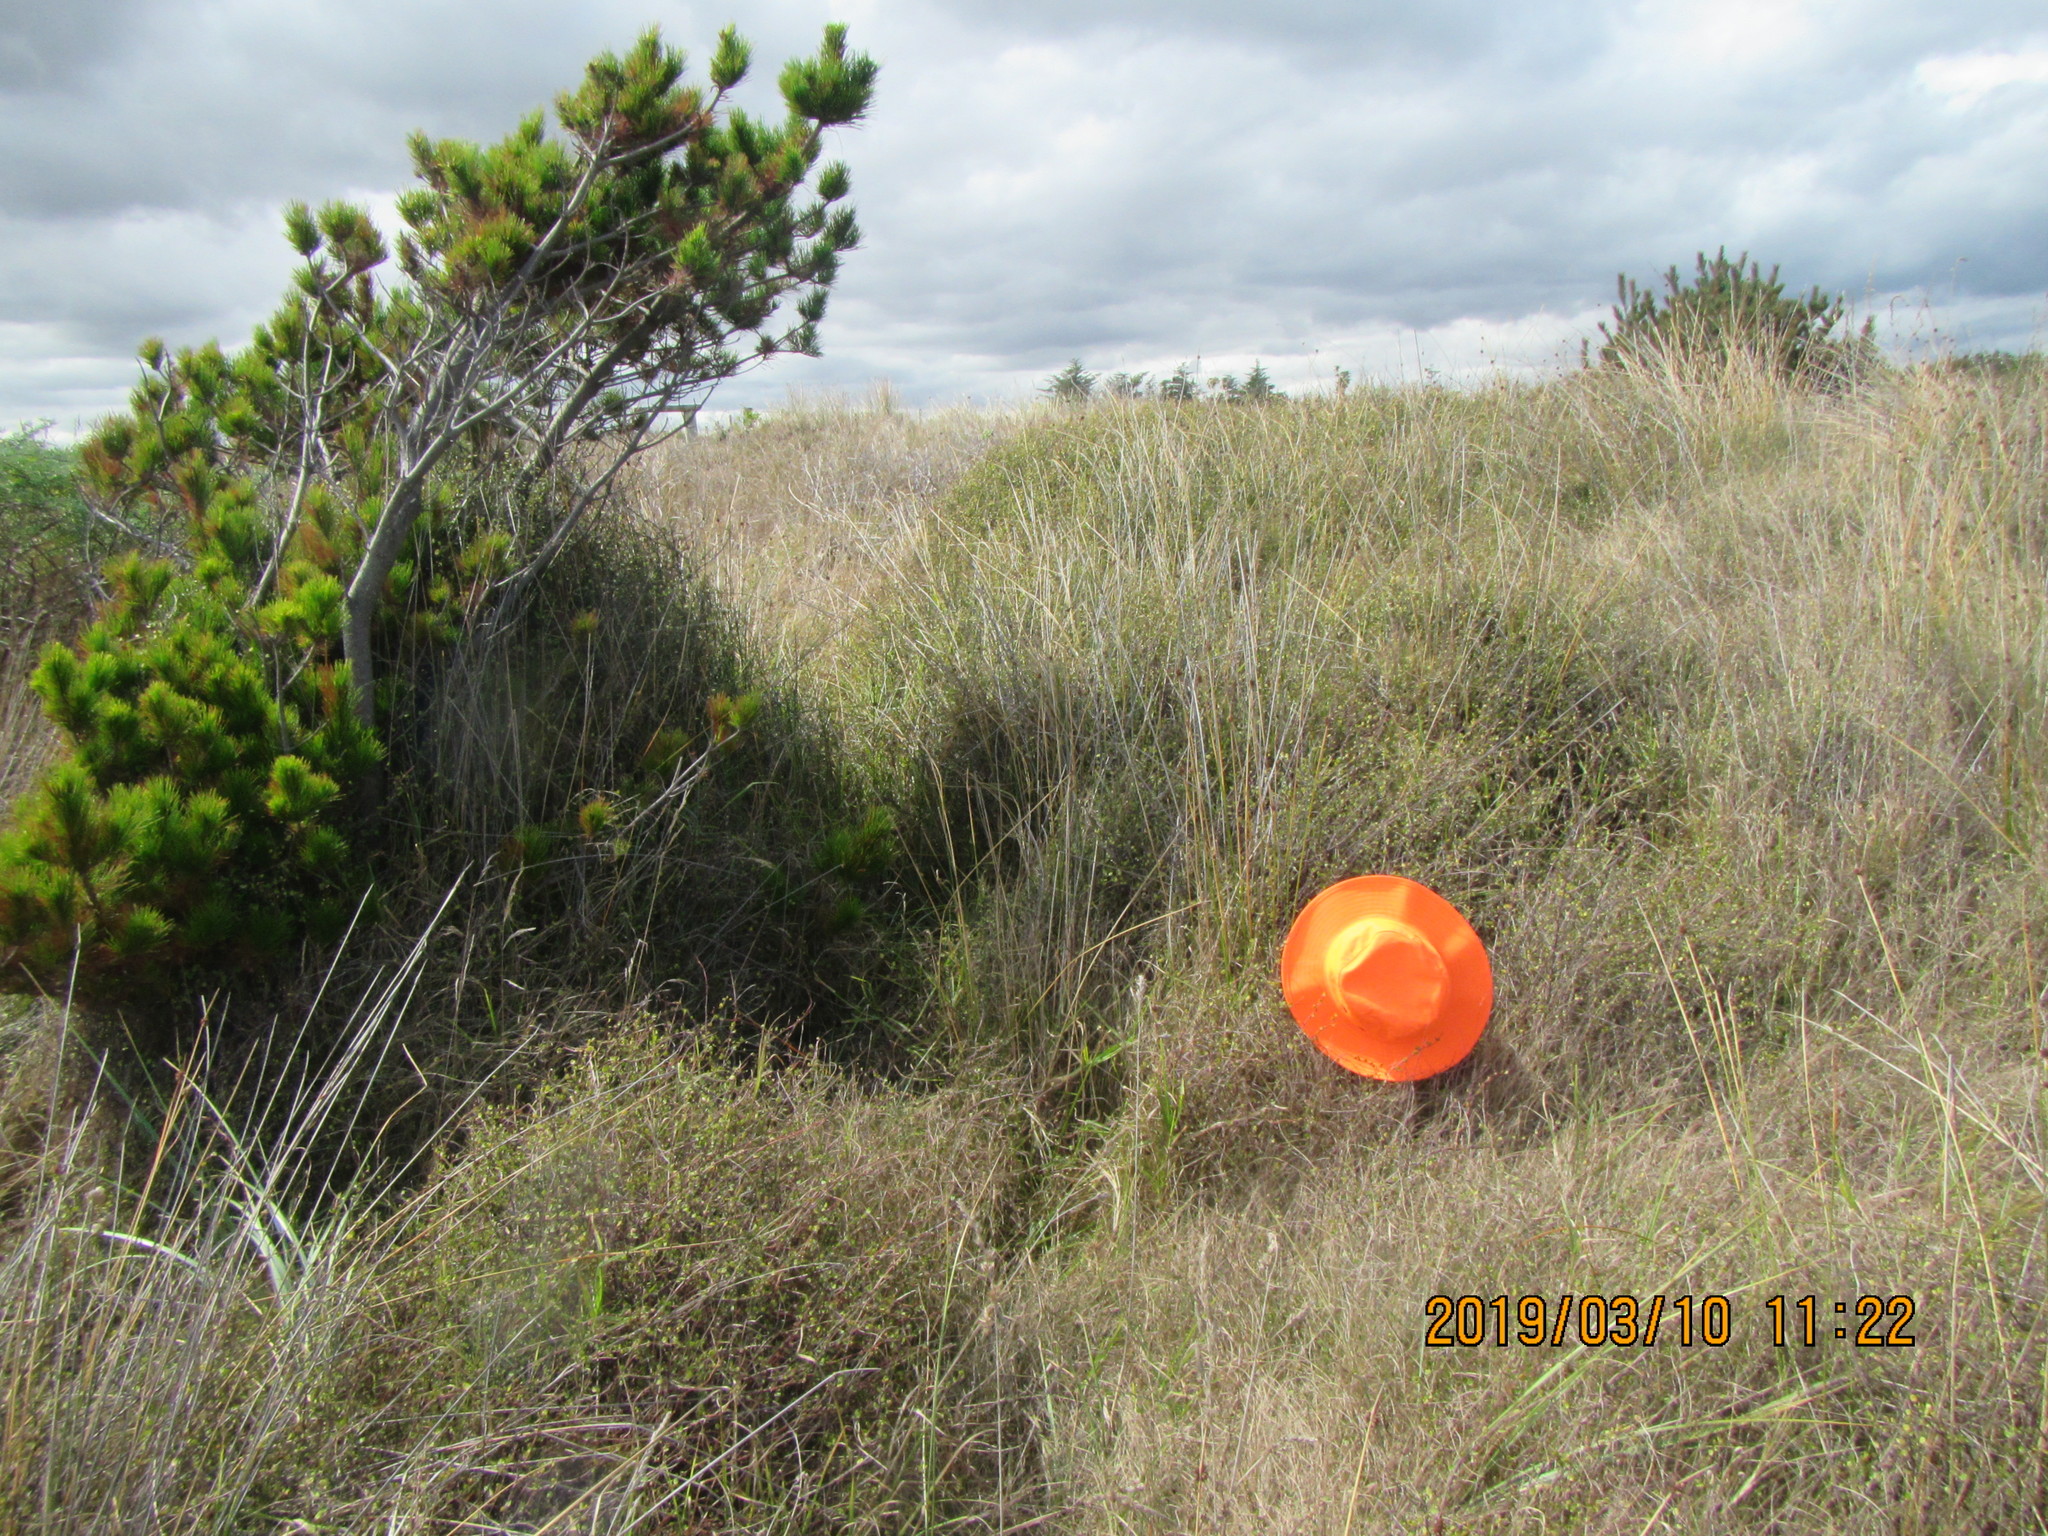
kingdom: Plantae
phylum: Tracheophyta
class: Magnoliopsida
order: Caryophyllales
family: Polygonaceae
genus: Muehlenbeckia
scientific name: Muehlenbeckia complexa
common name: Wireplant
